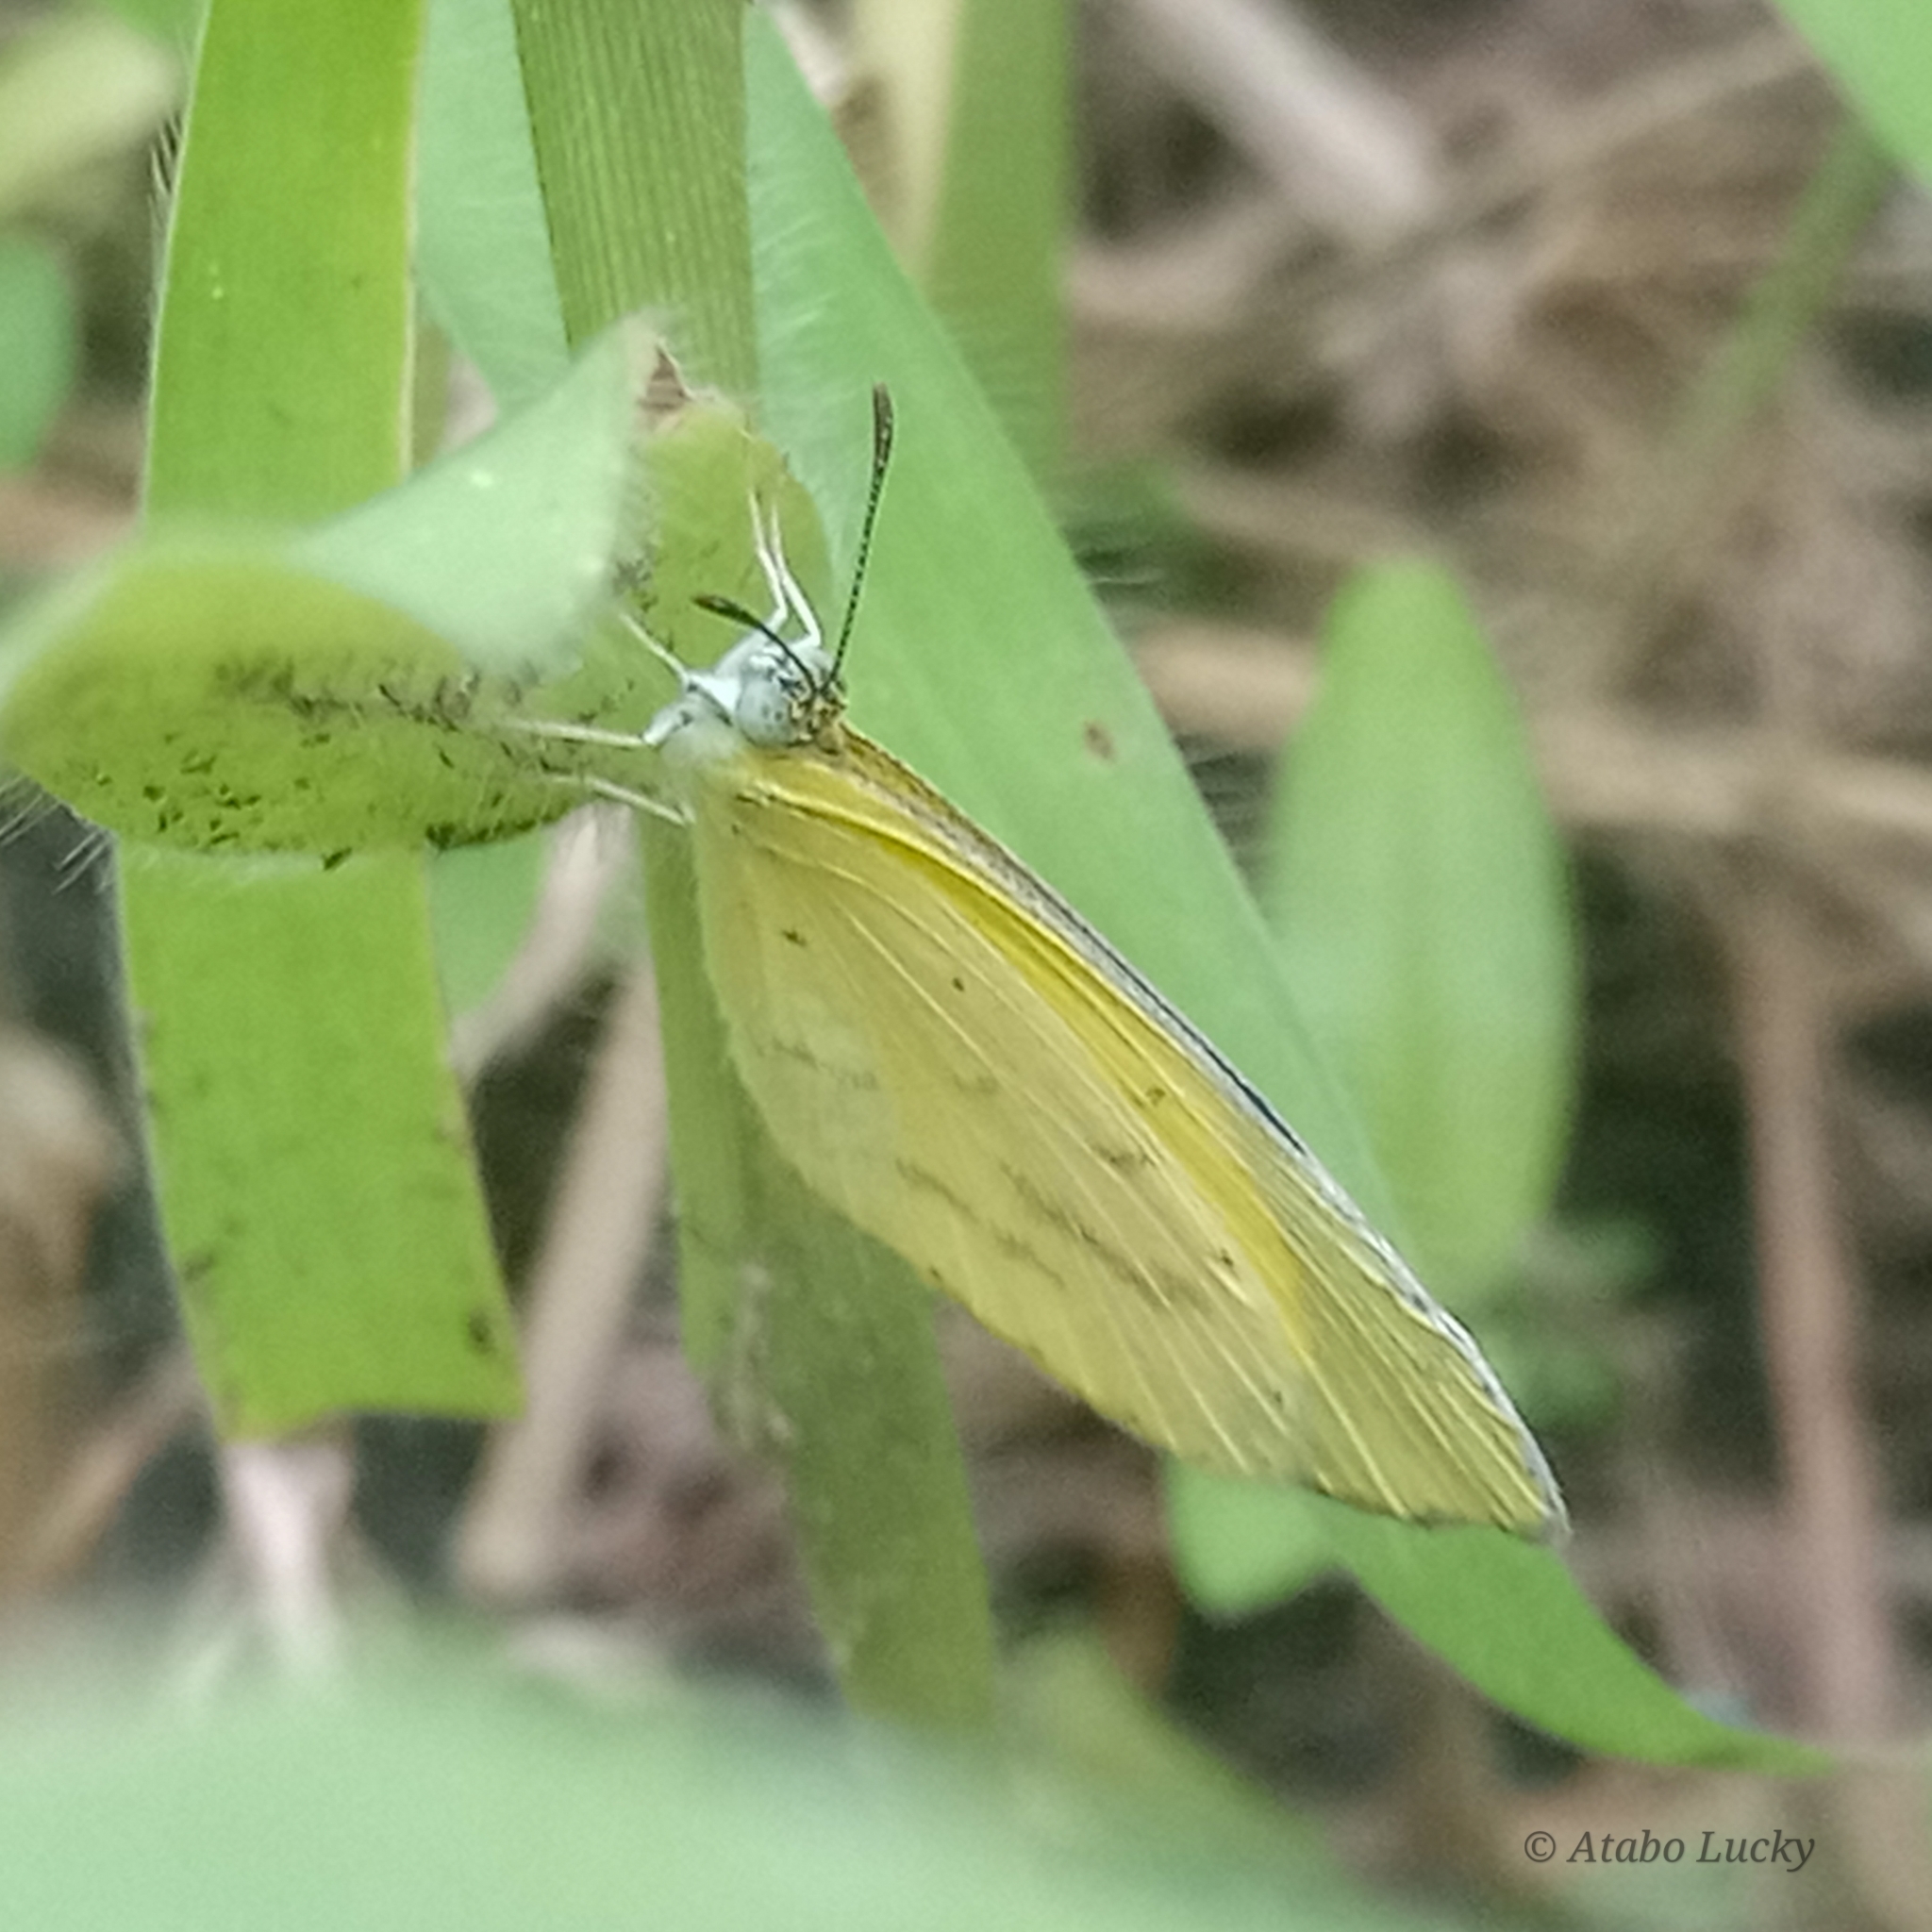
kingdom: Animalia
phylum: Arthropoda
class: Insecta
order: Lepidoptera
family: Pieridae
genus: Eurema
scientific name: Eurema brigitta
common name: Small grass yellow
